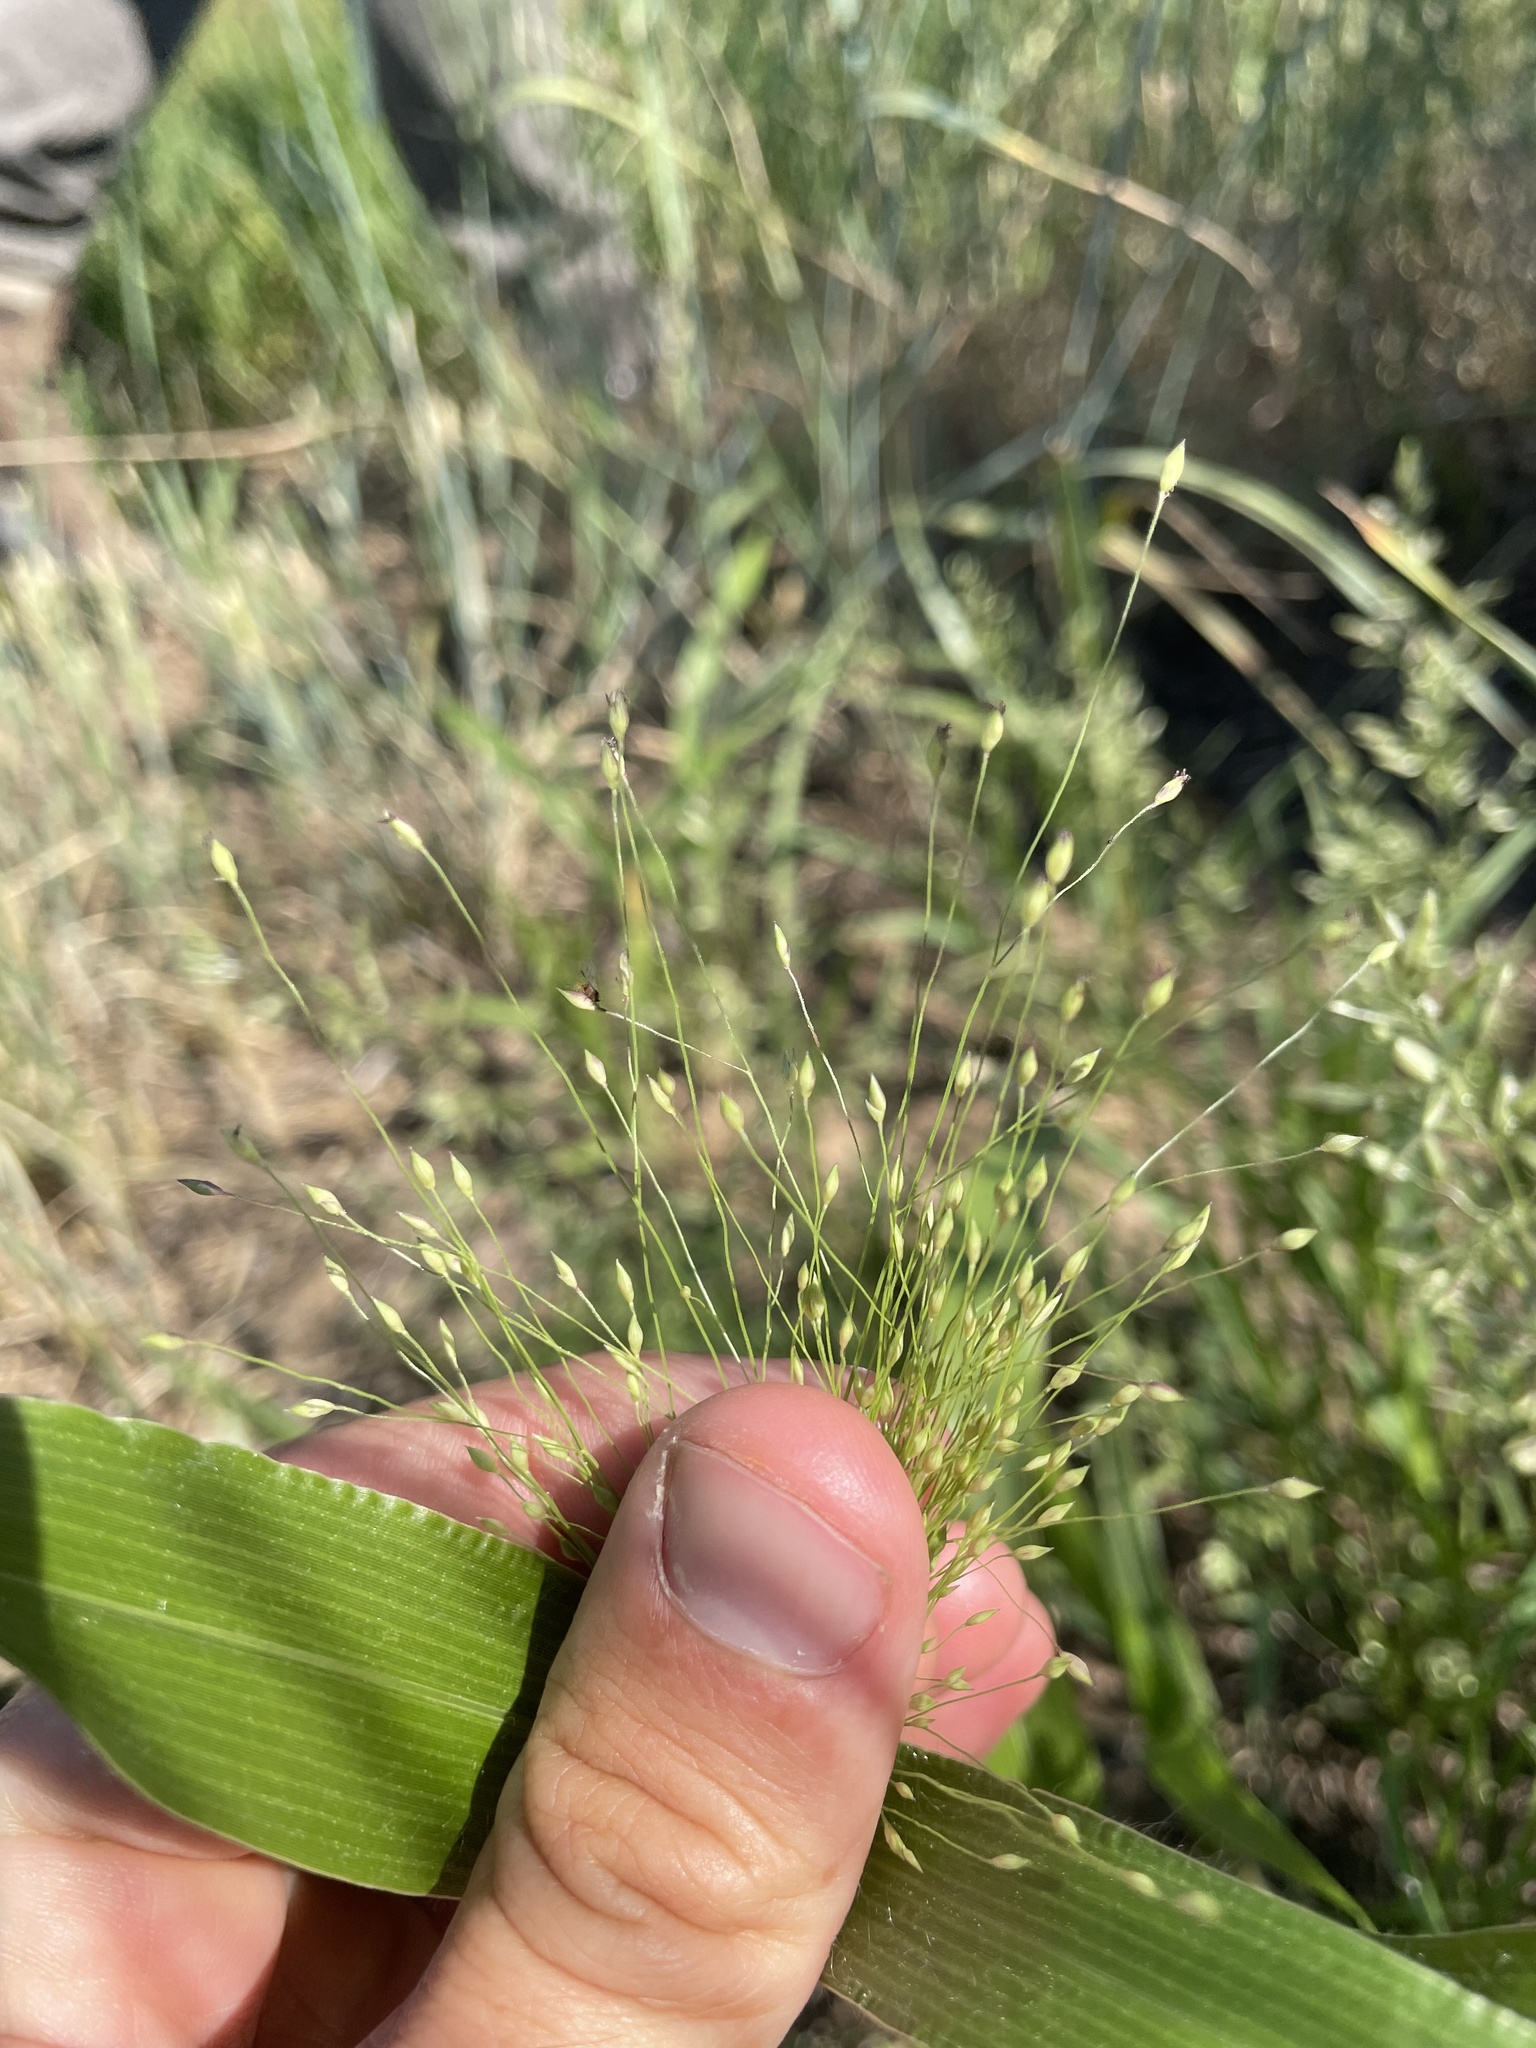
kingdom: Plantae
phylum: Tracheophyta
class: Liliopsida
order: Poales
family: Poaceae
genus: Panicum
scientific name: Panicum capillare
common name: Witch-grass
